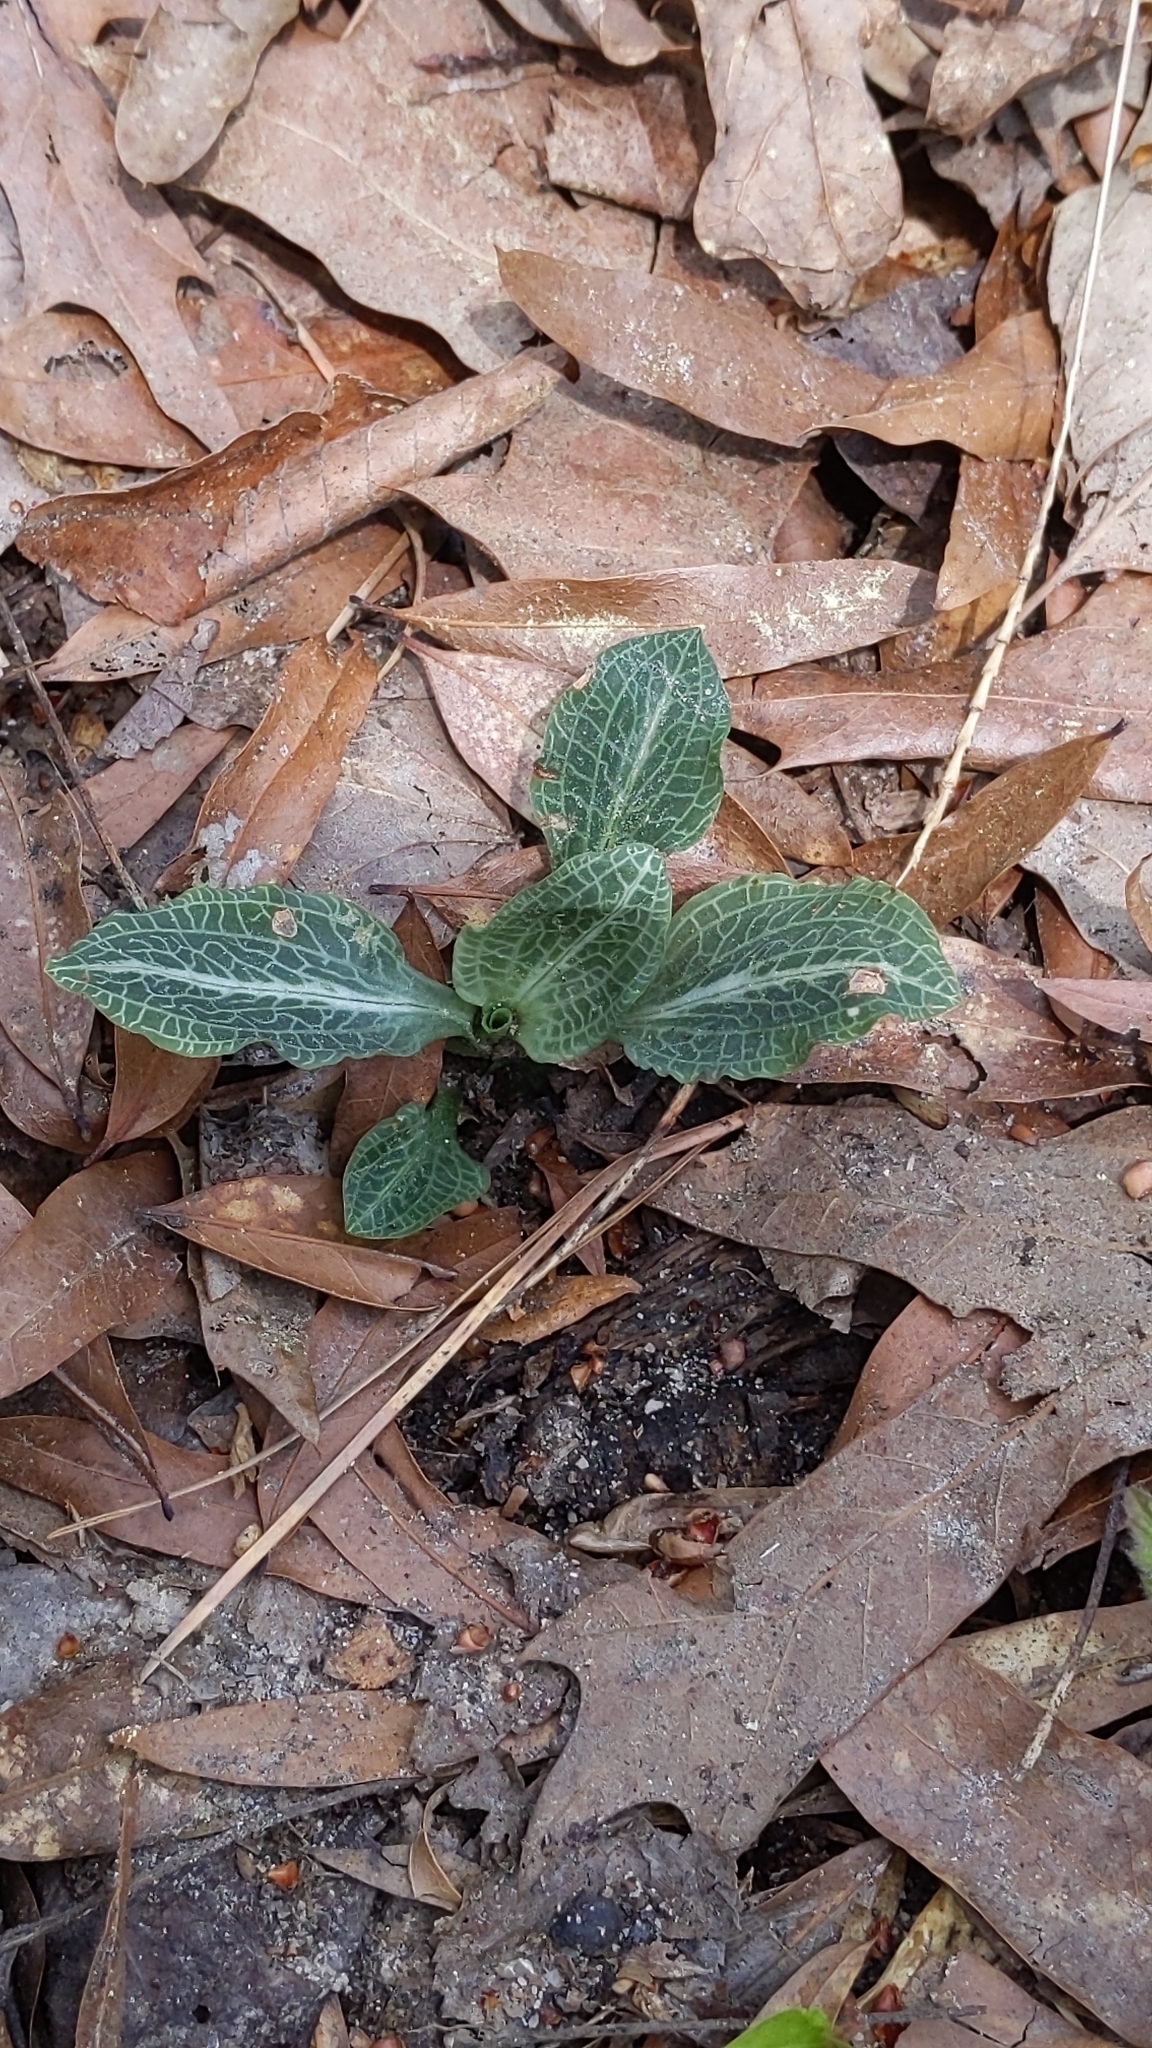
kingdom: Plantae
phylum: Tracheophyta
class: Liliopsida
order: Asparagales
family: Orchidaceae
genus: Goodyera
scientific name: Goodyera pubescens
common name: Downy rattlesnake-plantain
